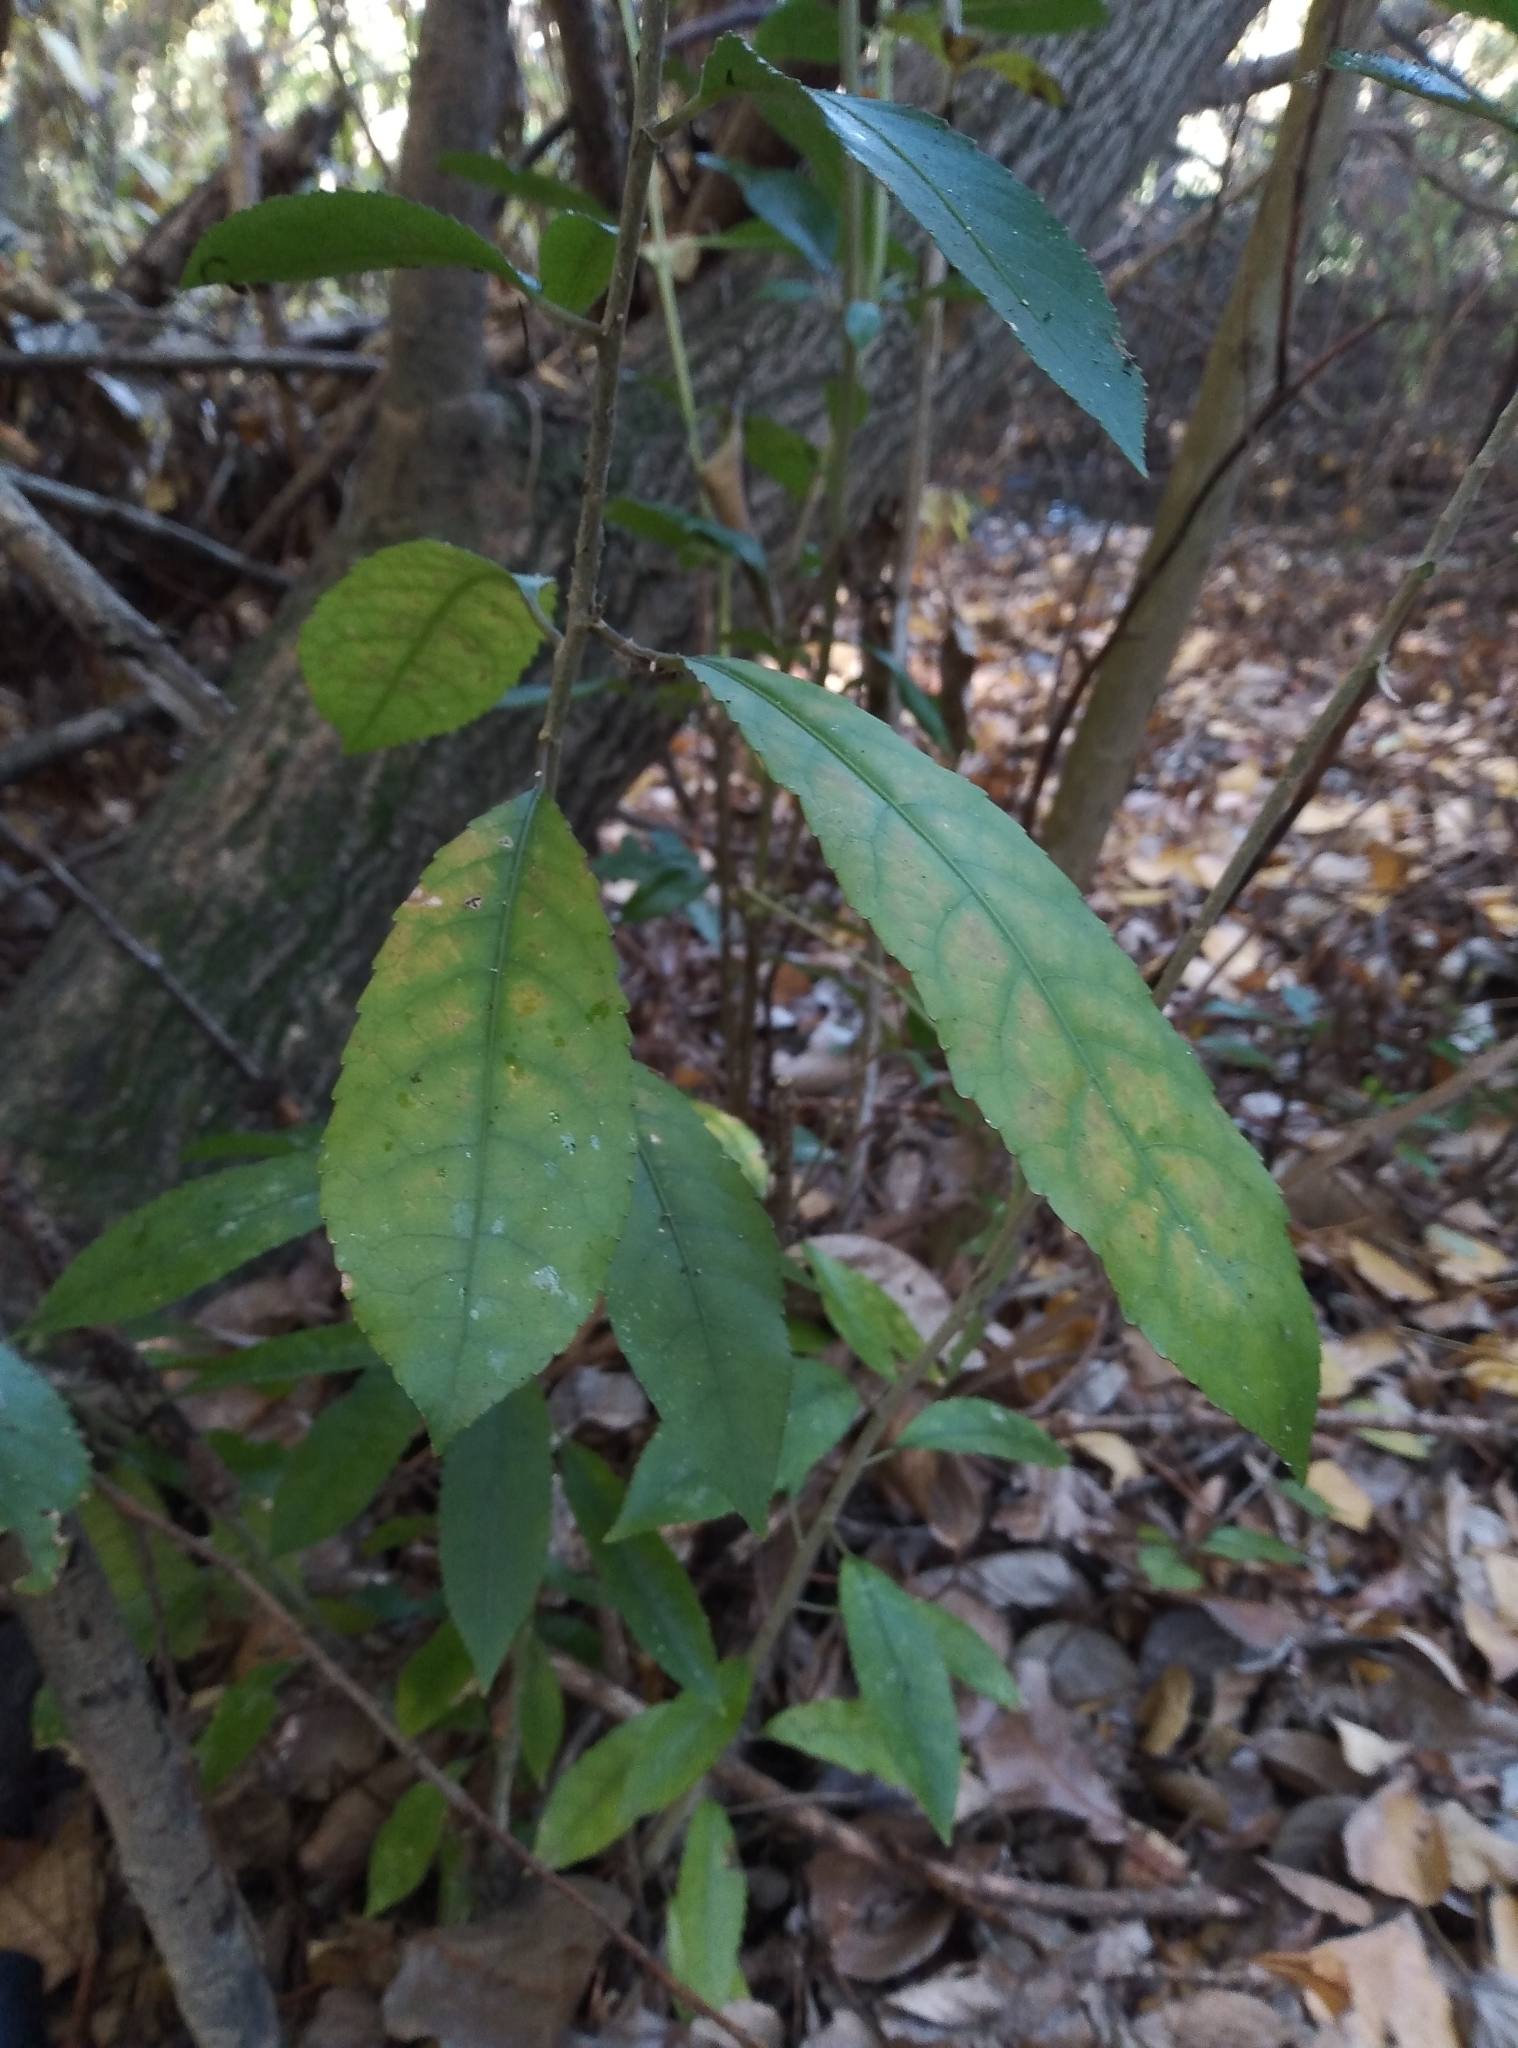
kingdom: Plantae
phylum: Tracheophyta
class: Magnoliopsida
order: Malpighiales
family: Violaceae
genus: Melicytus
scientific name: Melicytus ramiflorus
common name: Mahoe
